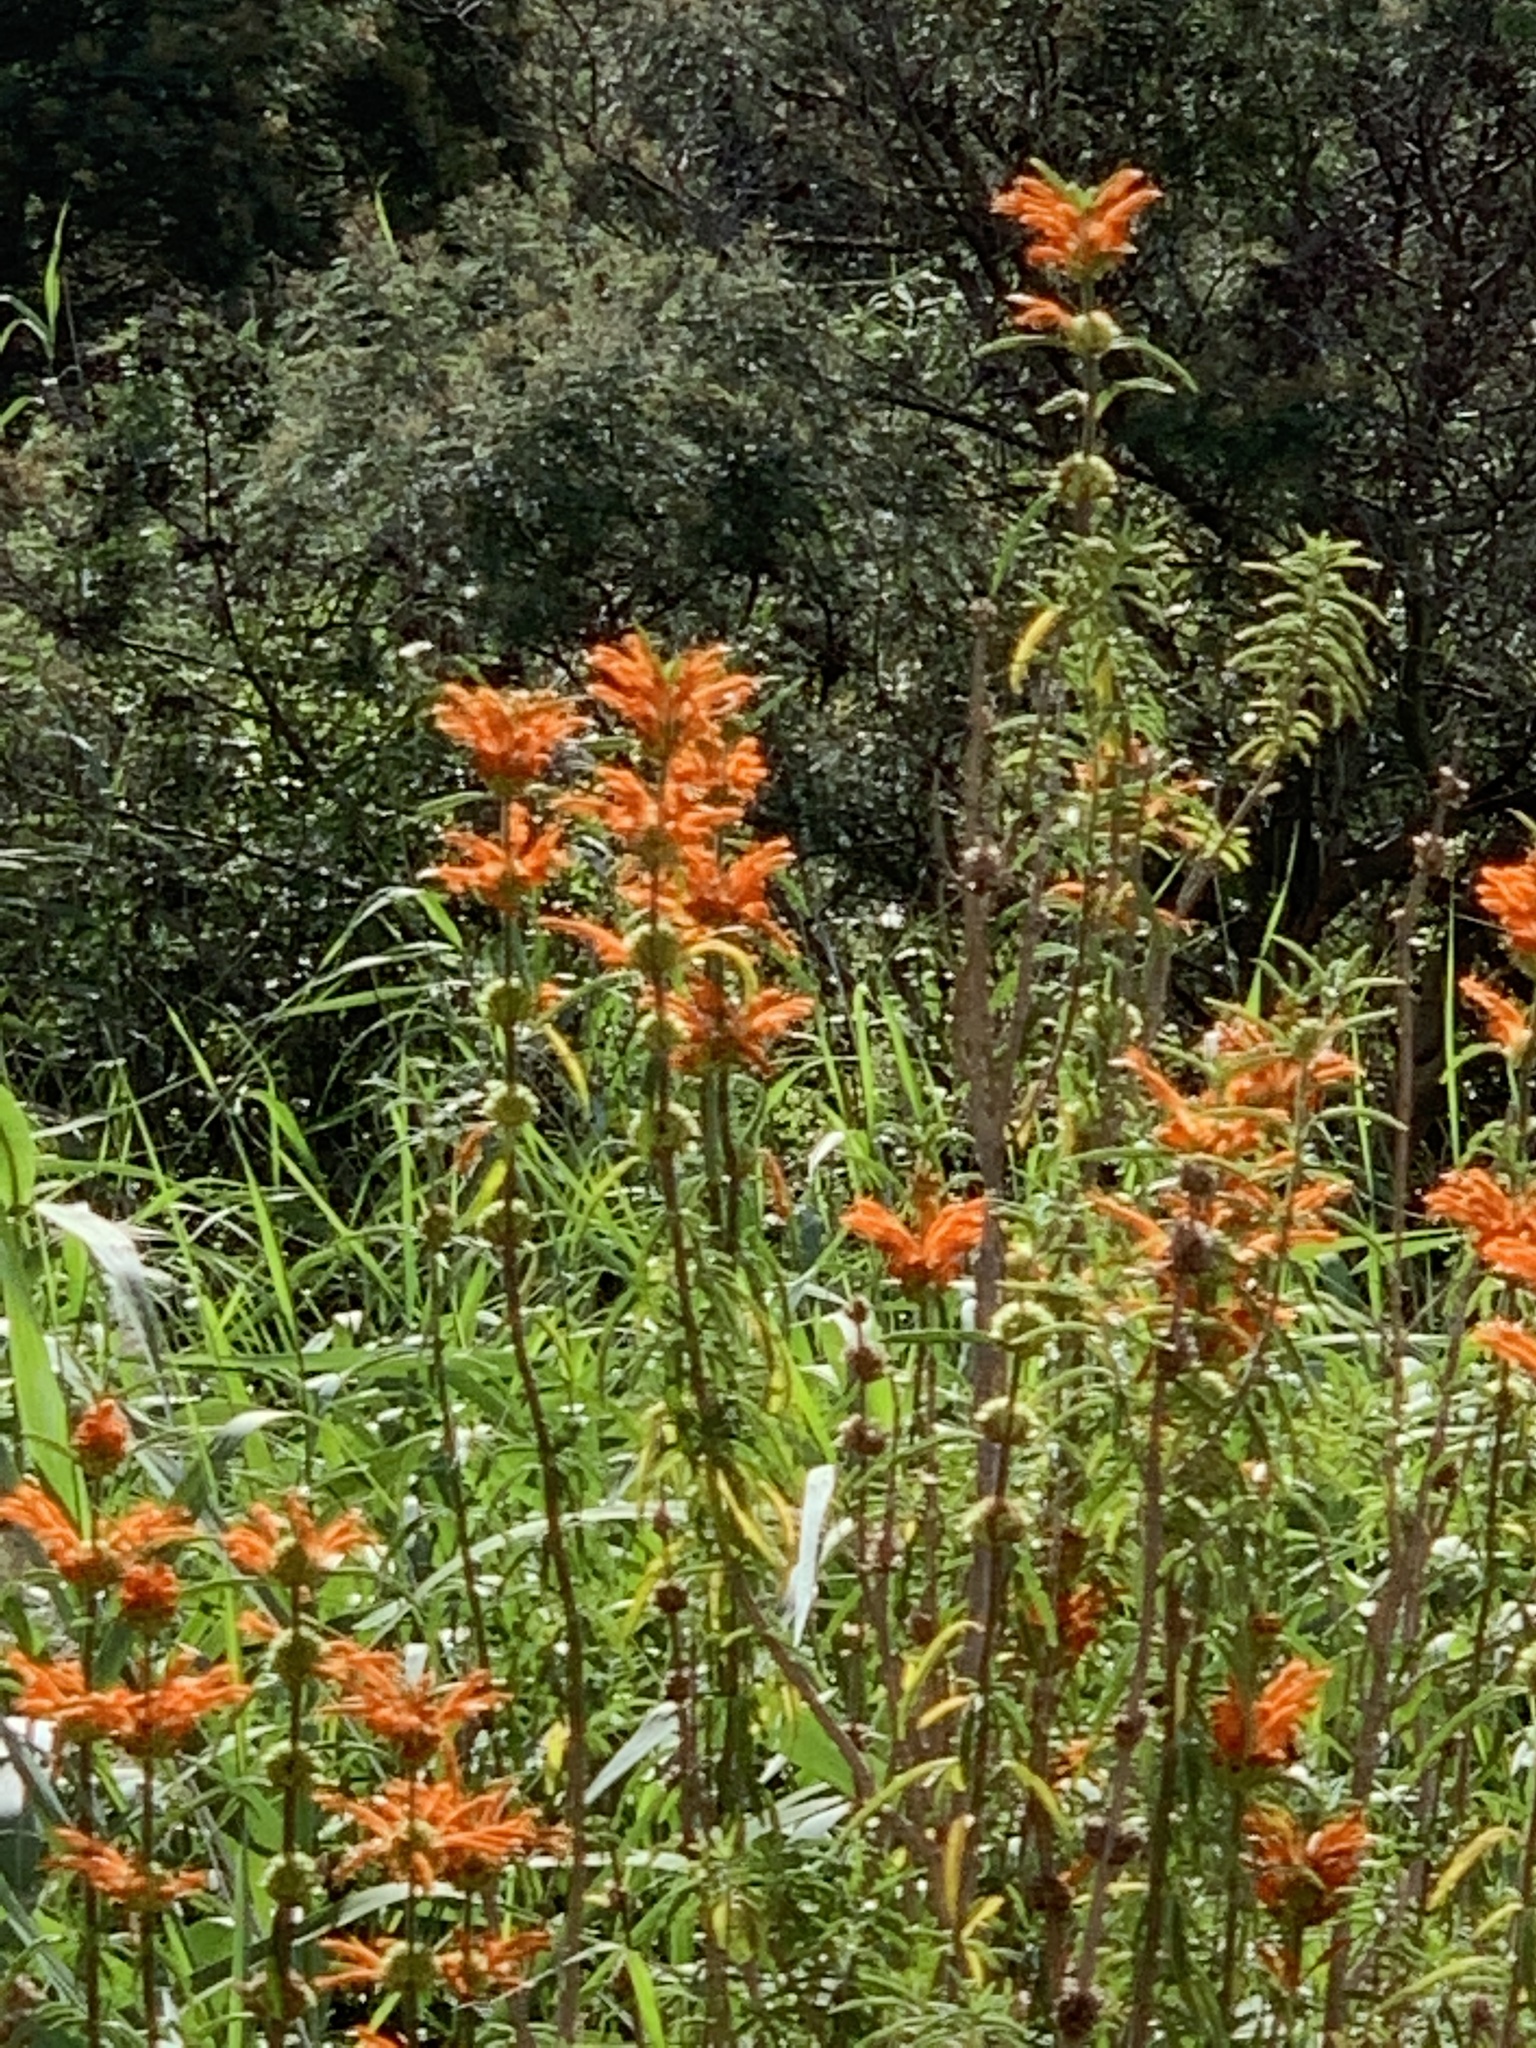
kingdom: Plantae
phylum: Tracheophyta
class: Magnoliopsida
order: Lamiales
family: Lamiaceae
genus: Leonotis
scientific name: Leonotis leonurus
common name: Lion's ear
